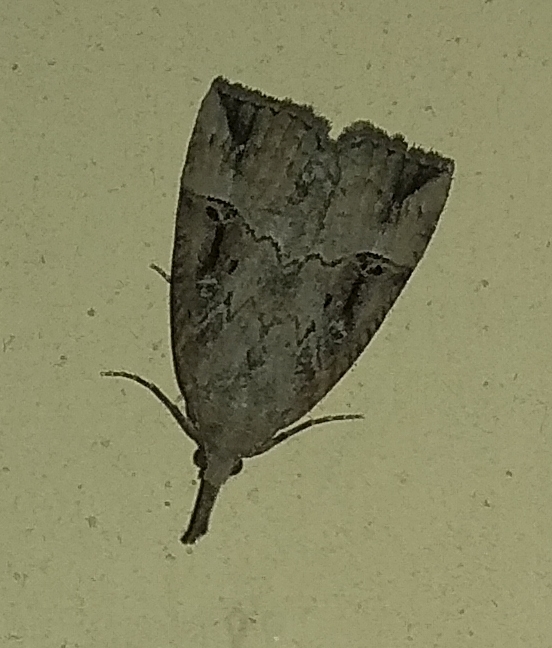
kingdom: Animalia
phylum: Arthropoda
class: Insecta
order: Lepidoptera
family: Erebidae
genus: Hypena
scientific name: Hypena rostralis
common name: Buttoned snout
